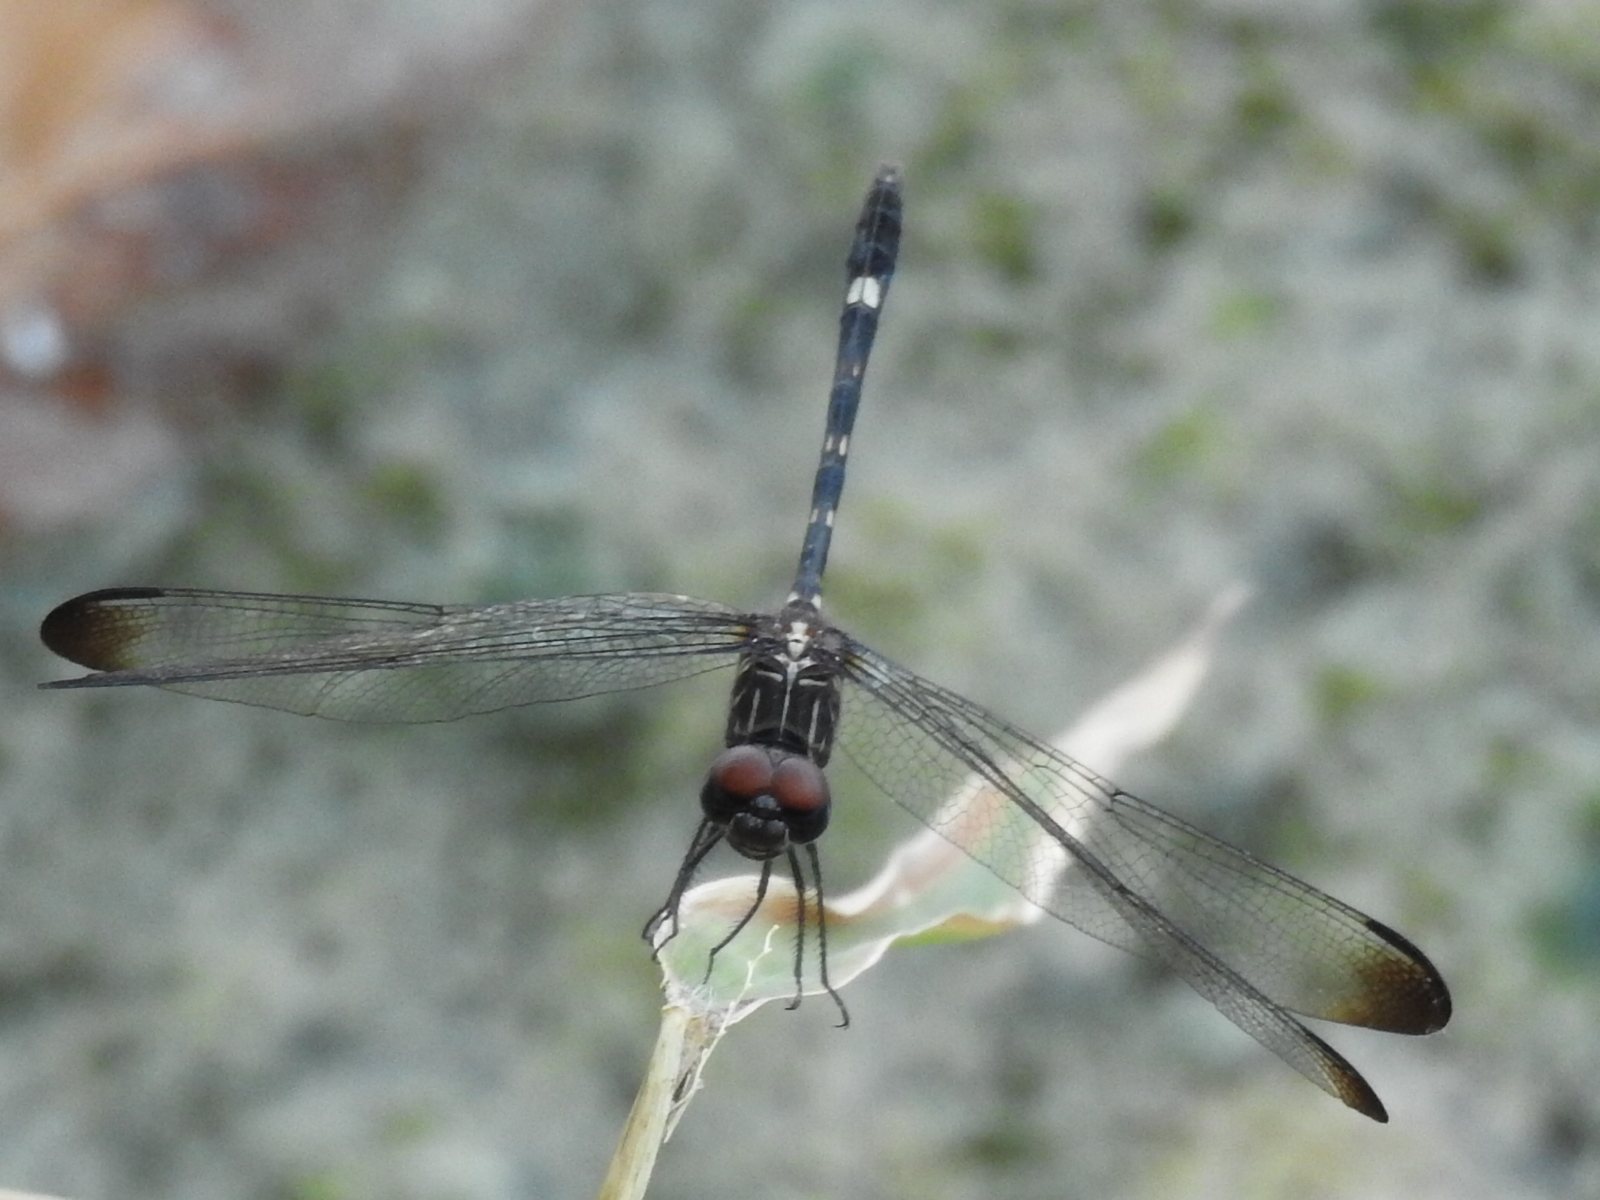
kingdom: Animalia
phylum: Arthropoda
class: Insecta
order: Odonata
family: Libellulidae
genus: Dythemis
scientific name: Dythemis velox
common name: Swift setwing
